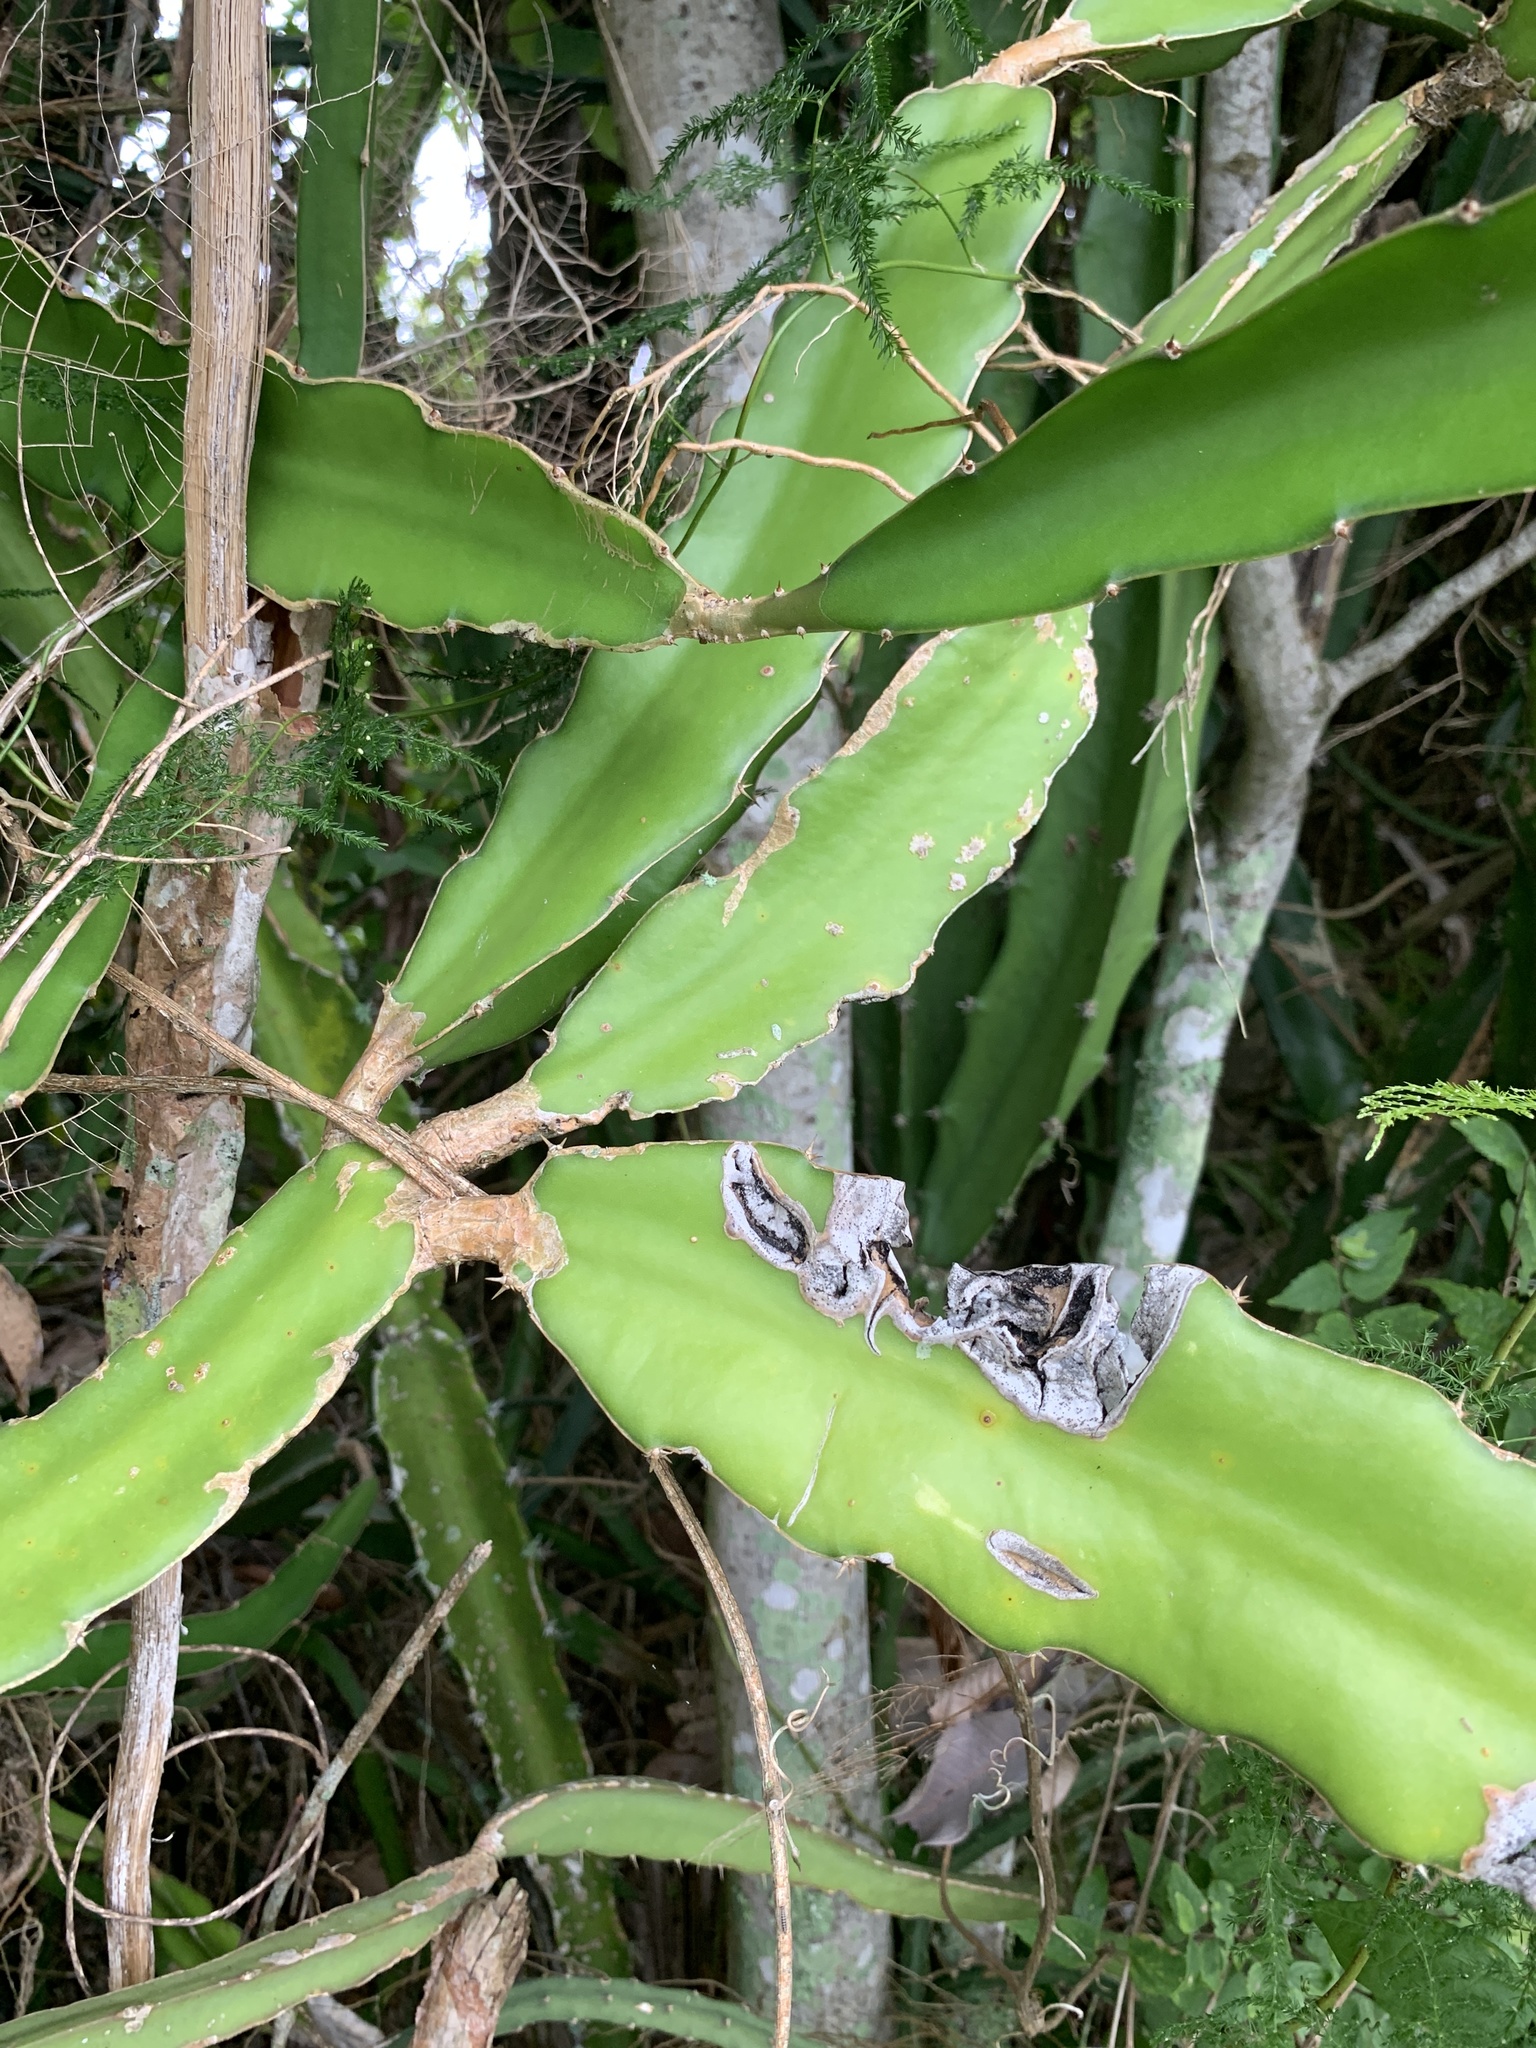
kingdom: Plantae
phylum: Tracheophyta
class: Magnoliopsida
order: Caryophyllales
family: Cactaceae
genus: Selenicereus
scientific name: Selenicereus undatus
